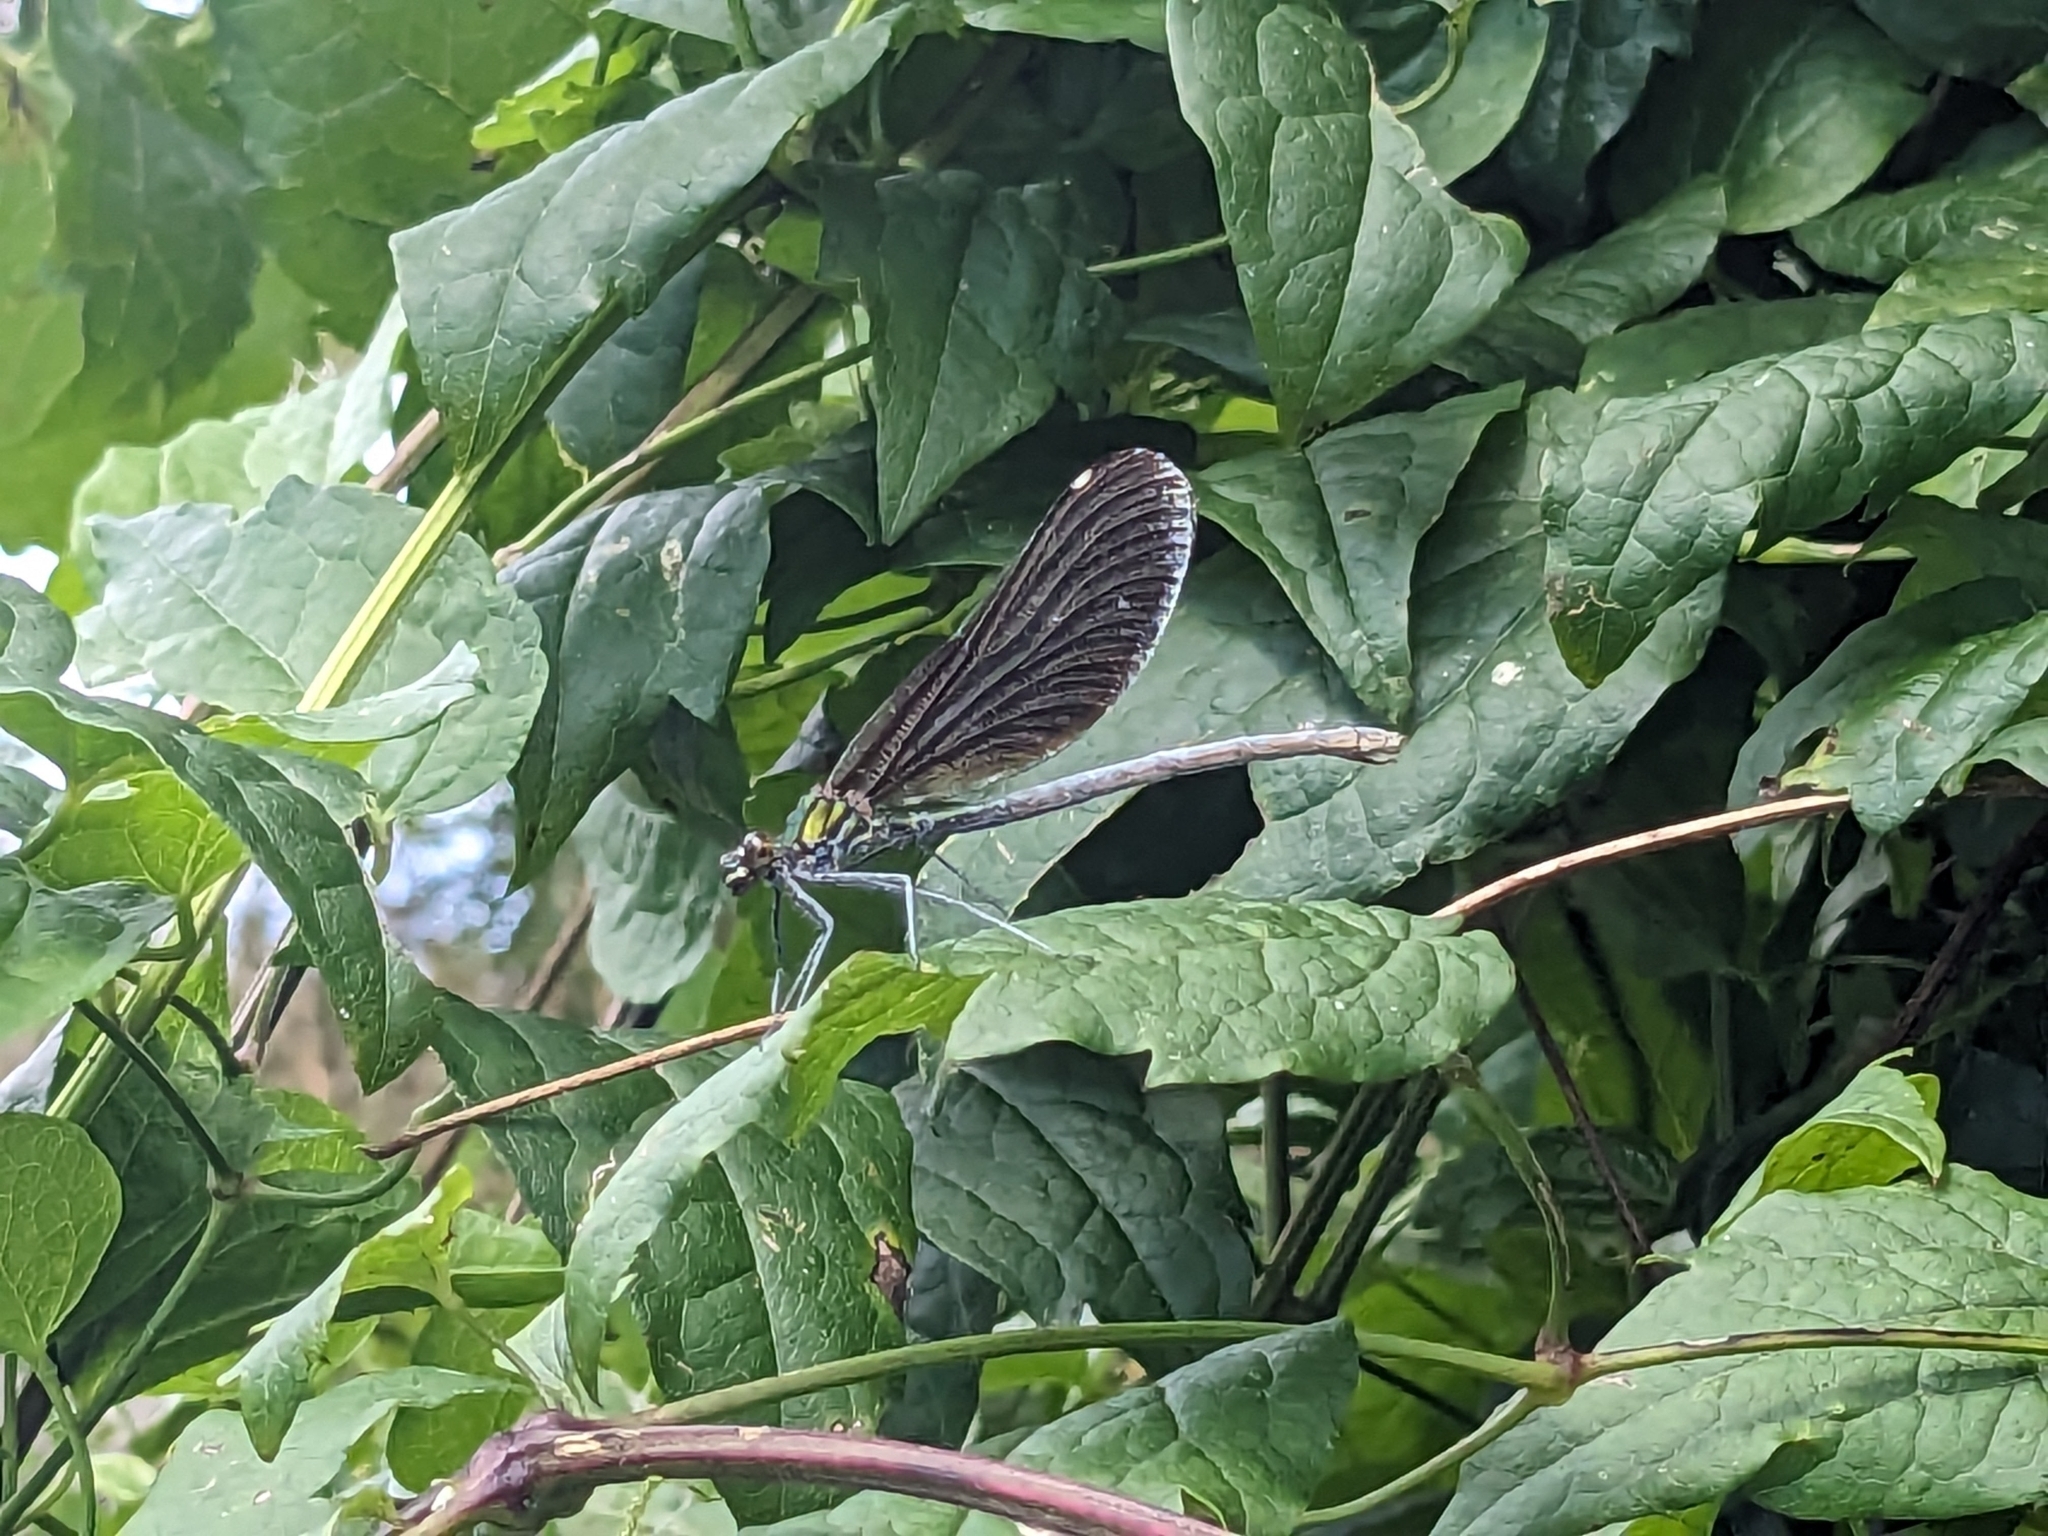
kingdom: Animalia
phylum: Arthropoda
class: Insecta
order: Odonata
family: Calopterygidae
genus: Calopteryx
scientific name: Calopteryx virgo
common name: Beautiful demoiselle
